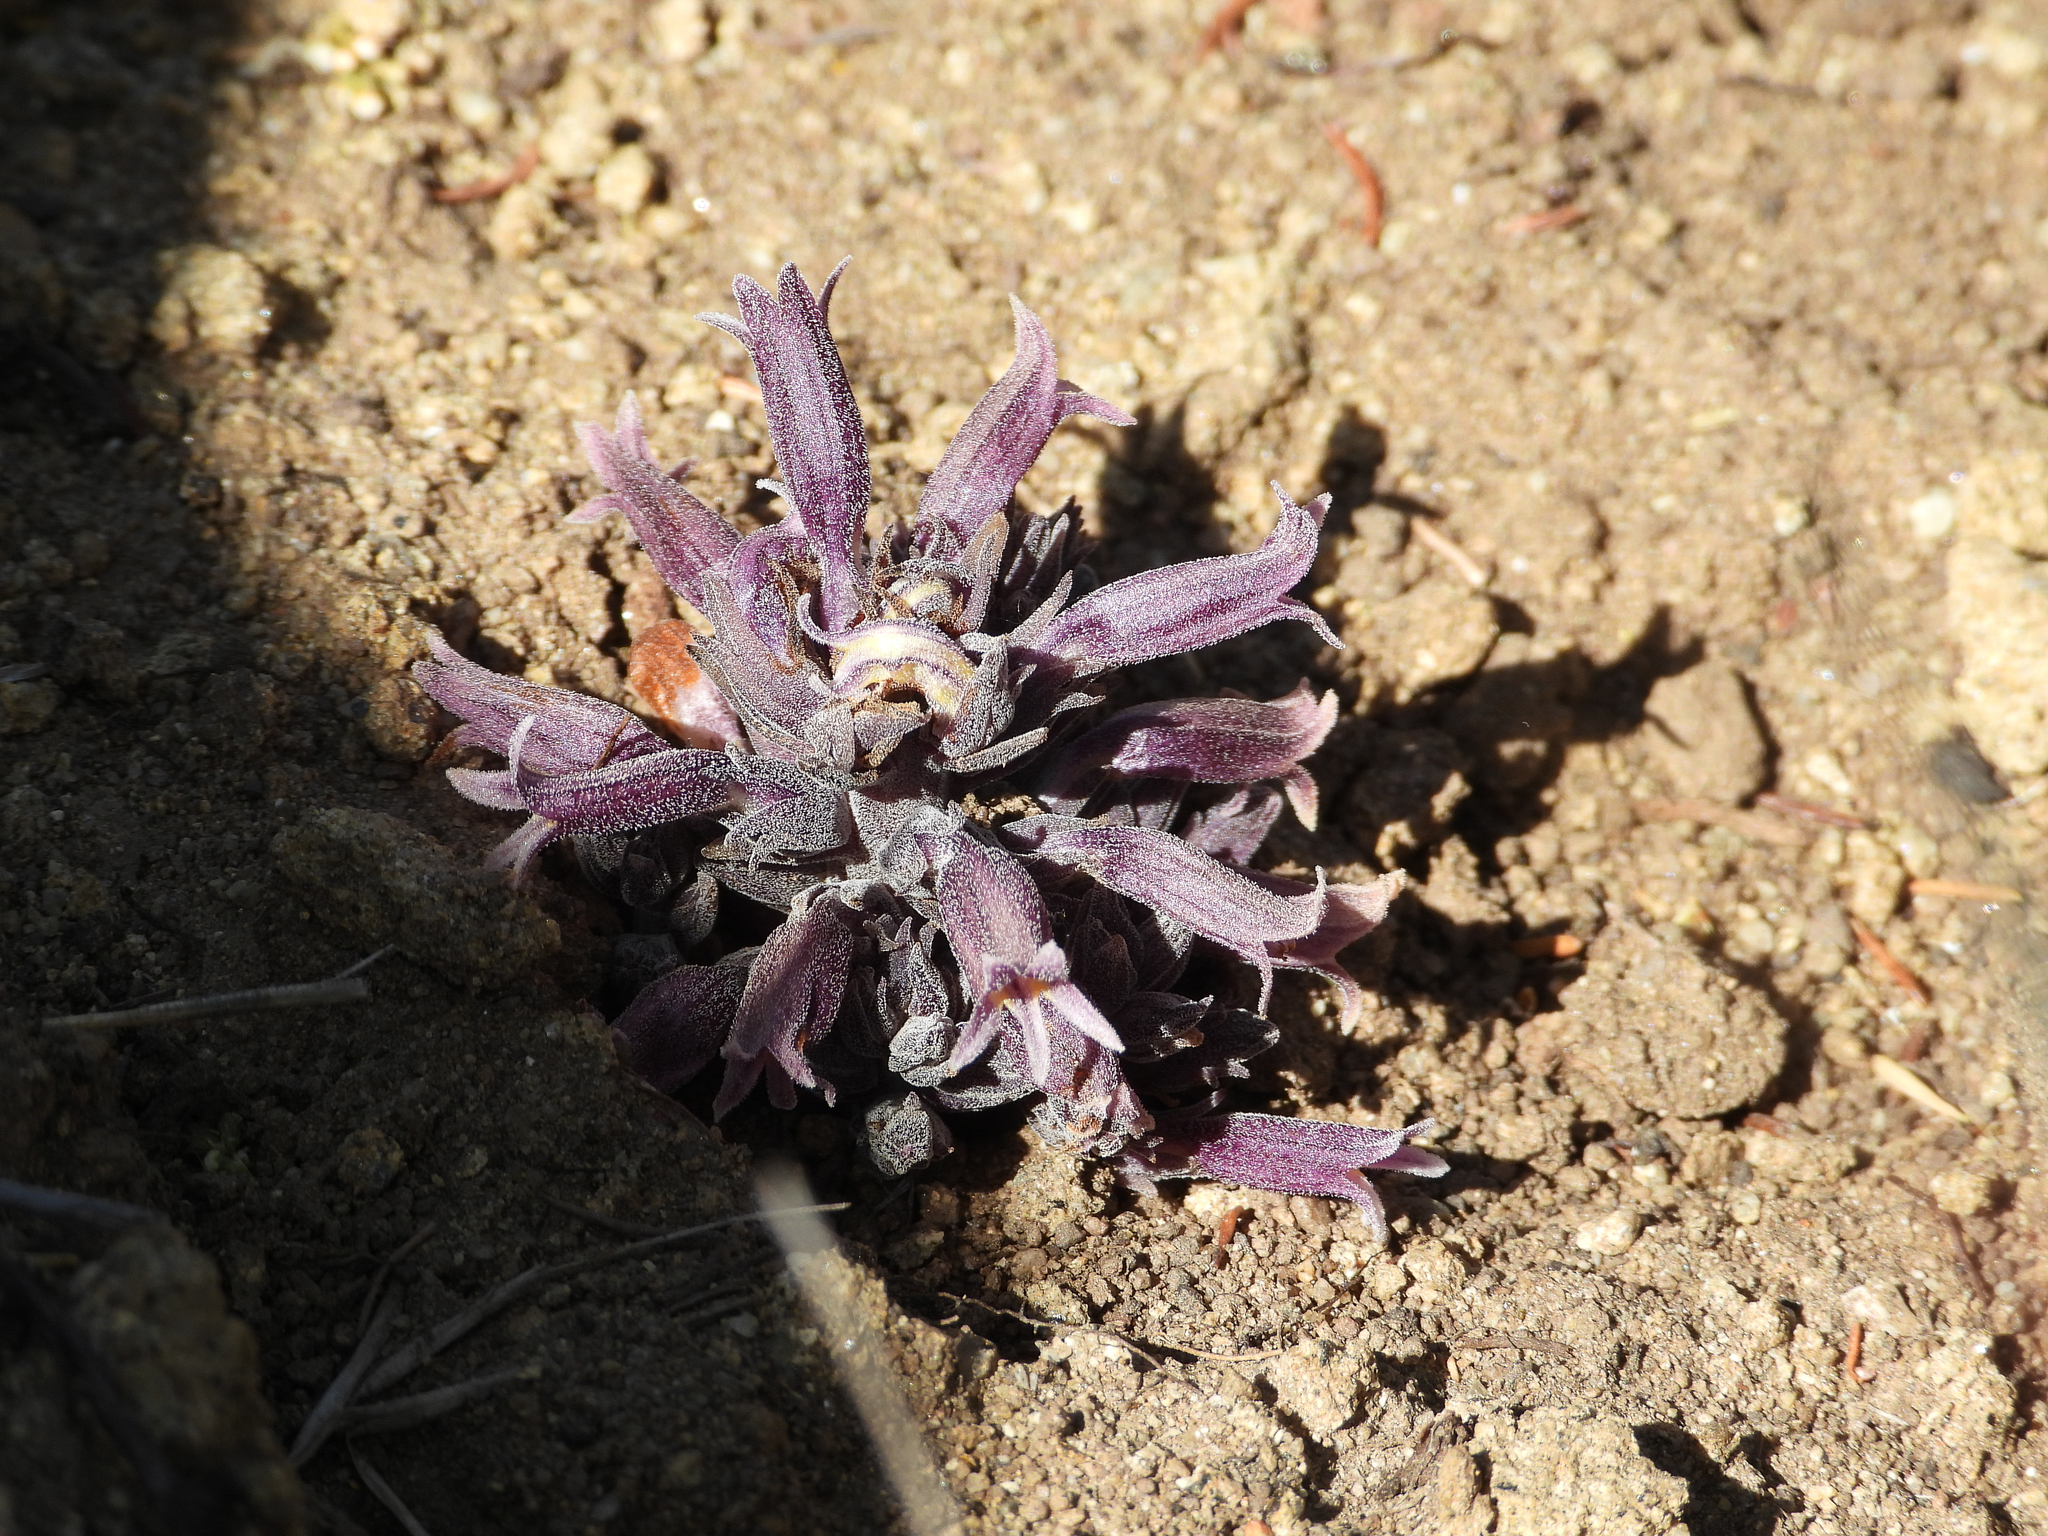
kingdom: Plantae
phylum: Tracheophyta
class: Magnoliopsida
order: Lamiales
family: Orobanchaceae
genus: Aphyllon
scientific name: Aphyllon tuberosum
